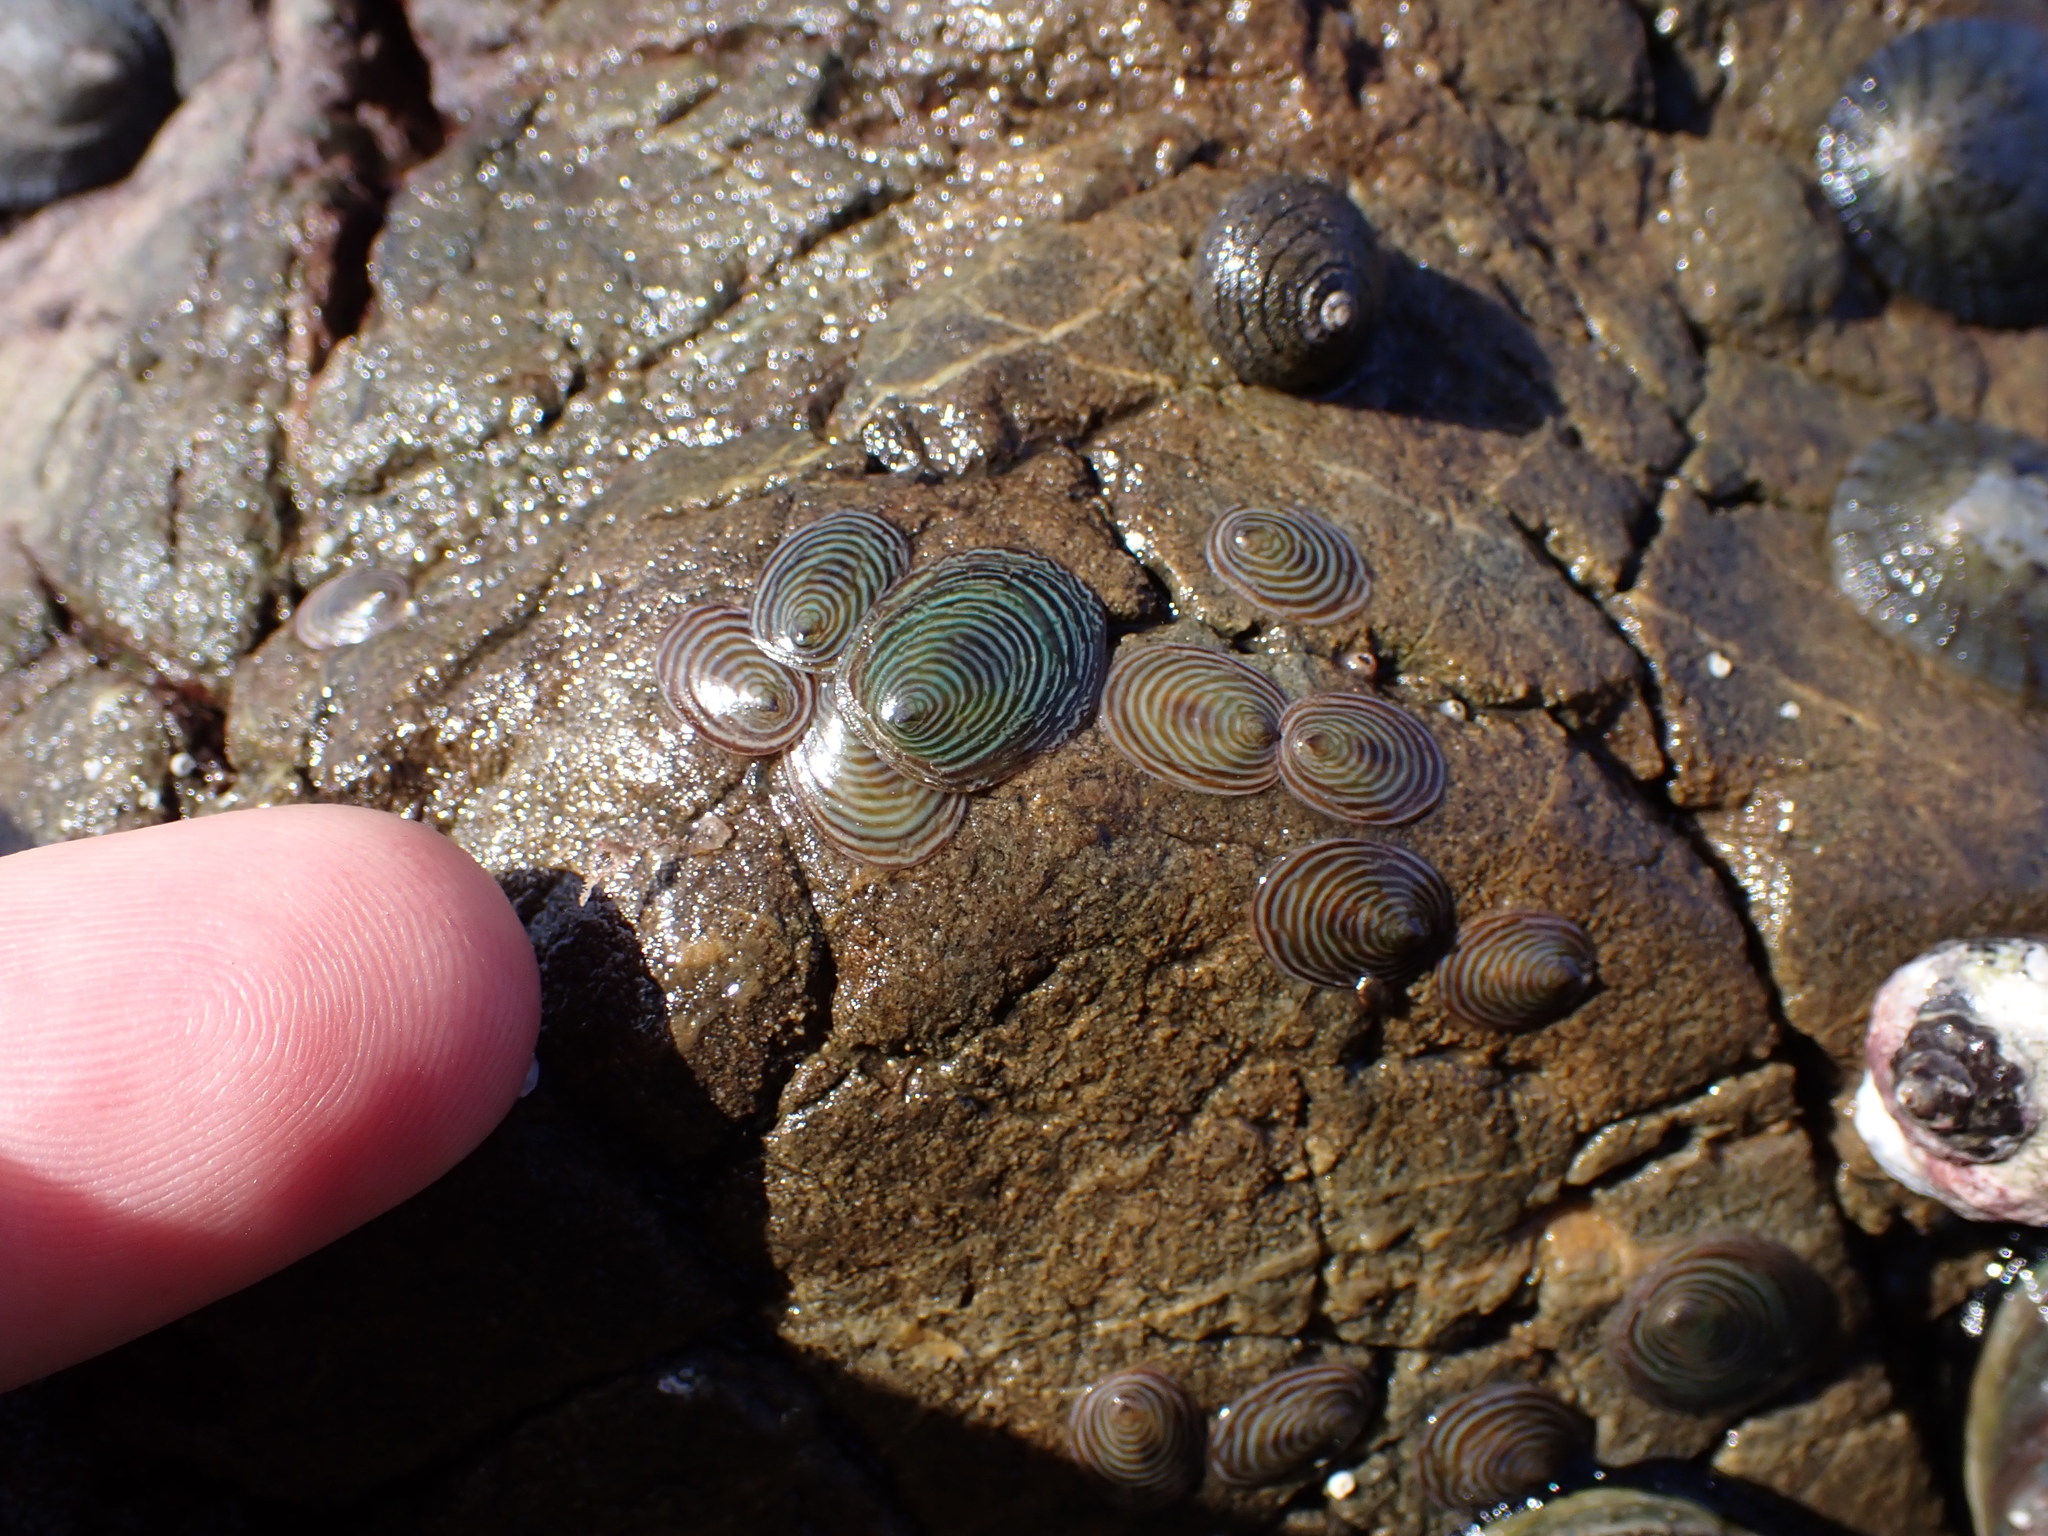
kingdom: Animalia
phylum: Mollusca
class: Gastropoda
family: Lottiidae
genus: Atalacmea
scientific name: Atalacmea fragilis
